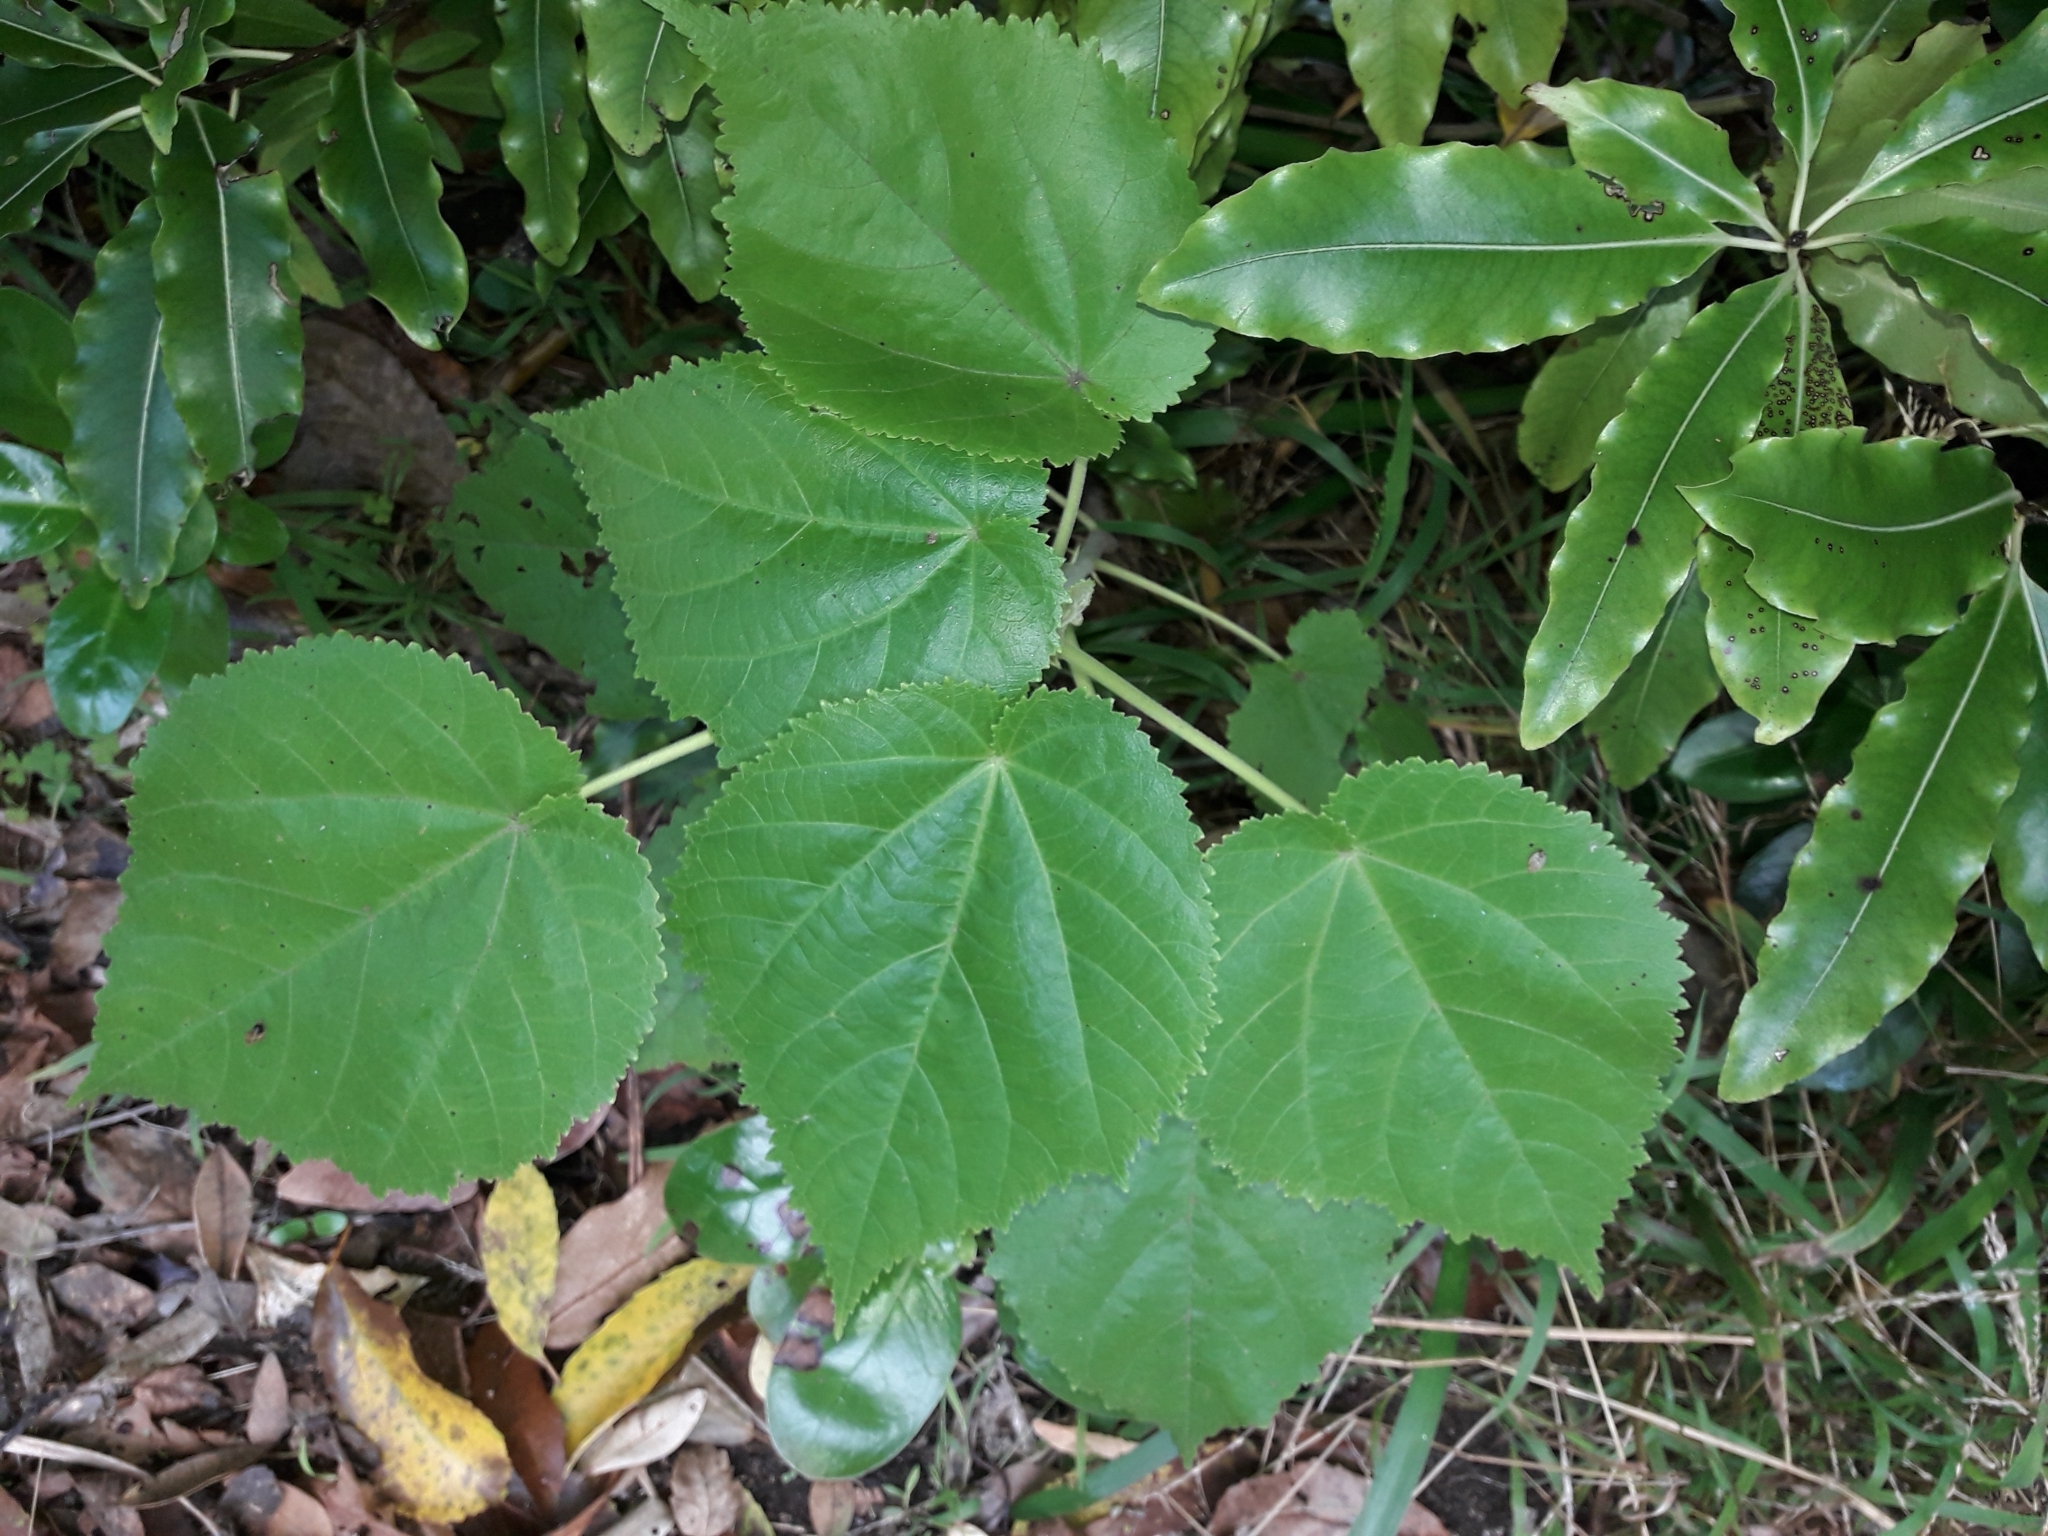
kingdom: Plantae
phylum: Tracheophyta
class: Magnoliopsida
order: Malvales
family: Malvaceae
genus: Entelea
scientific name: Entelea arborescens
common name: New zealand-mulberry
